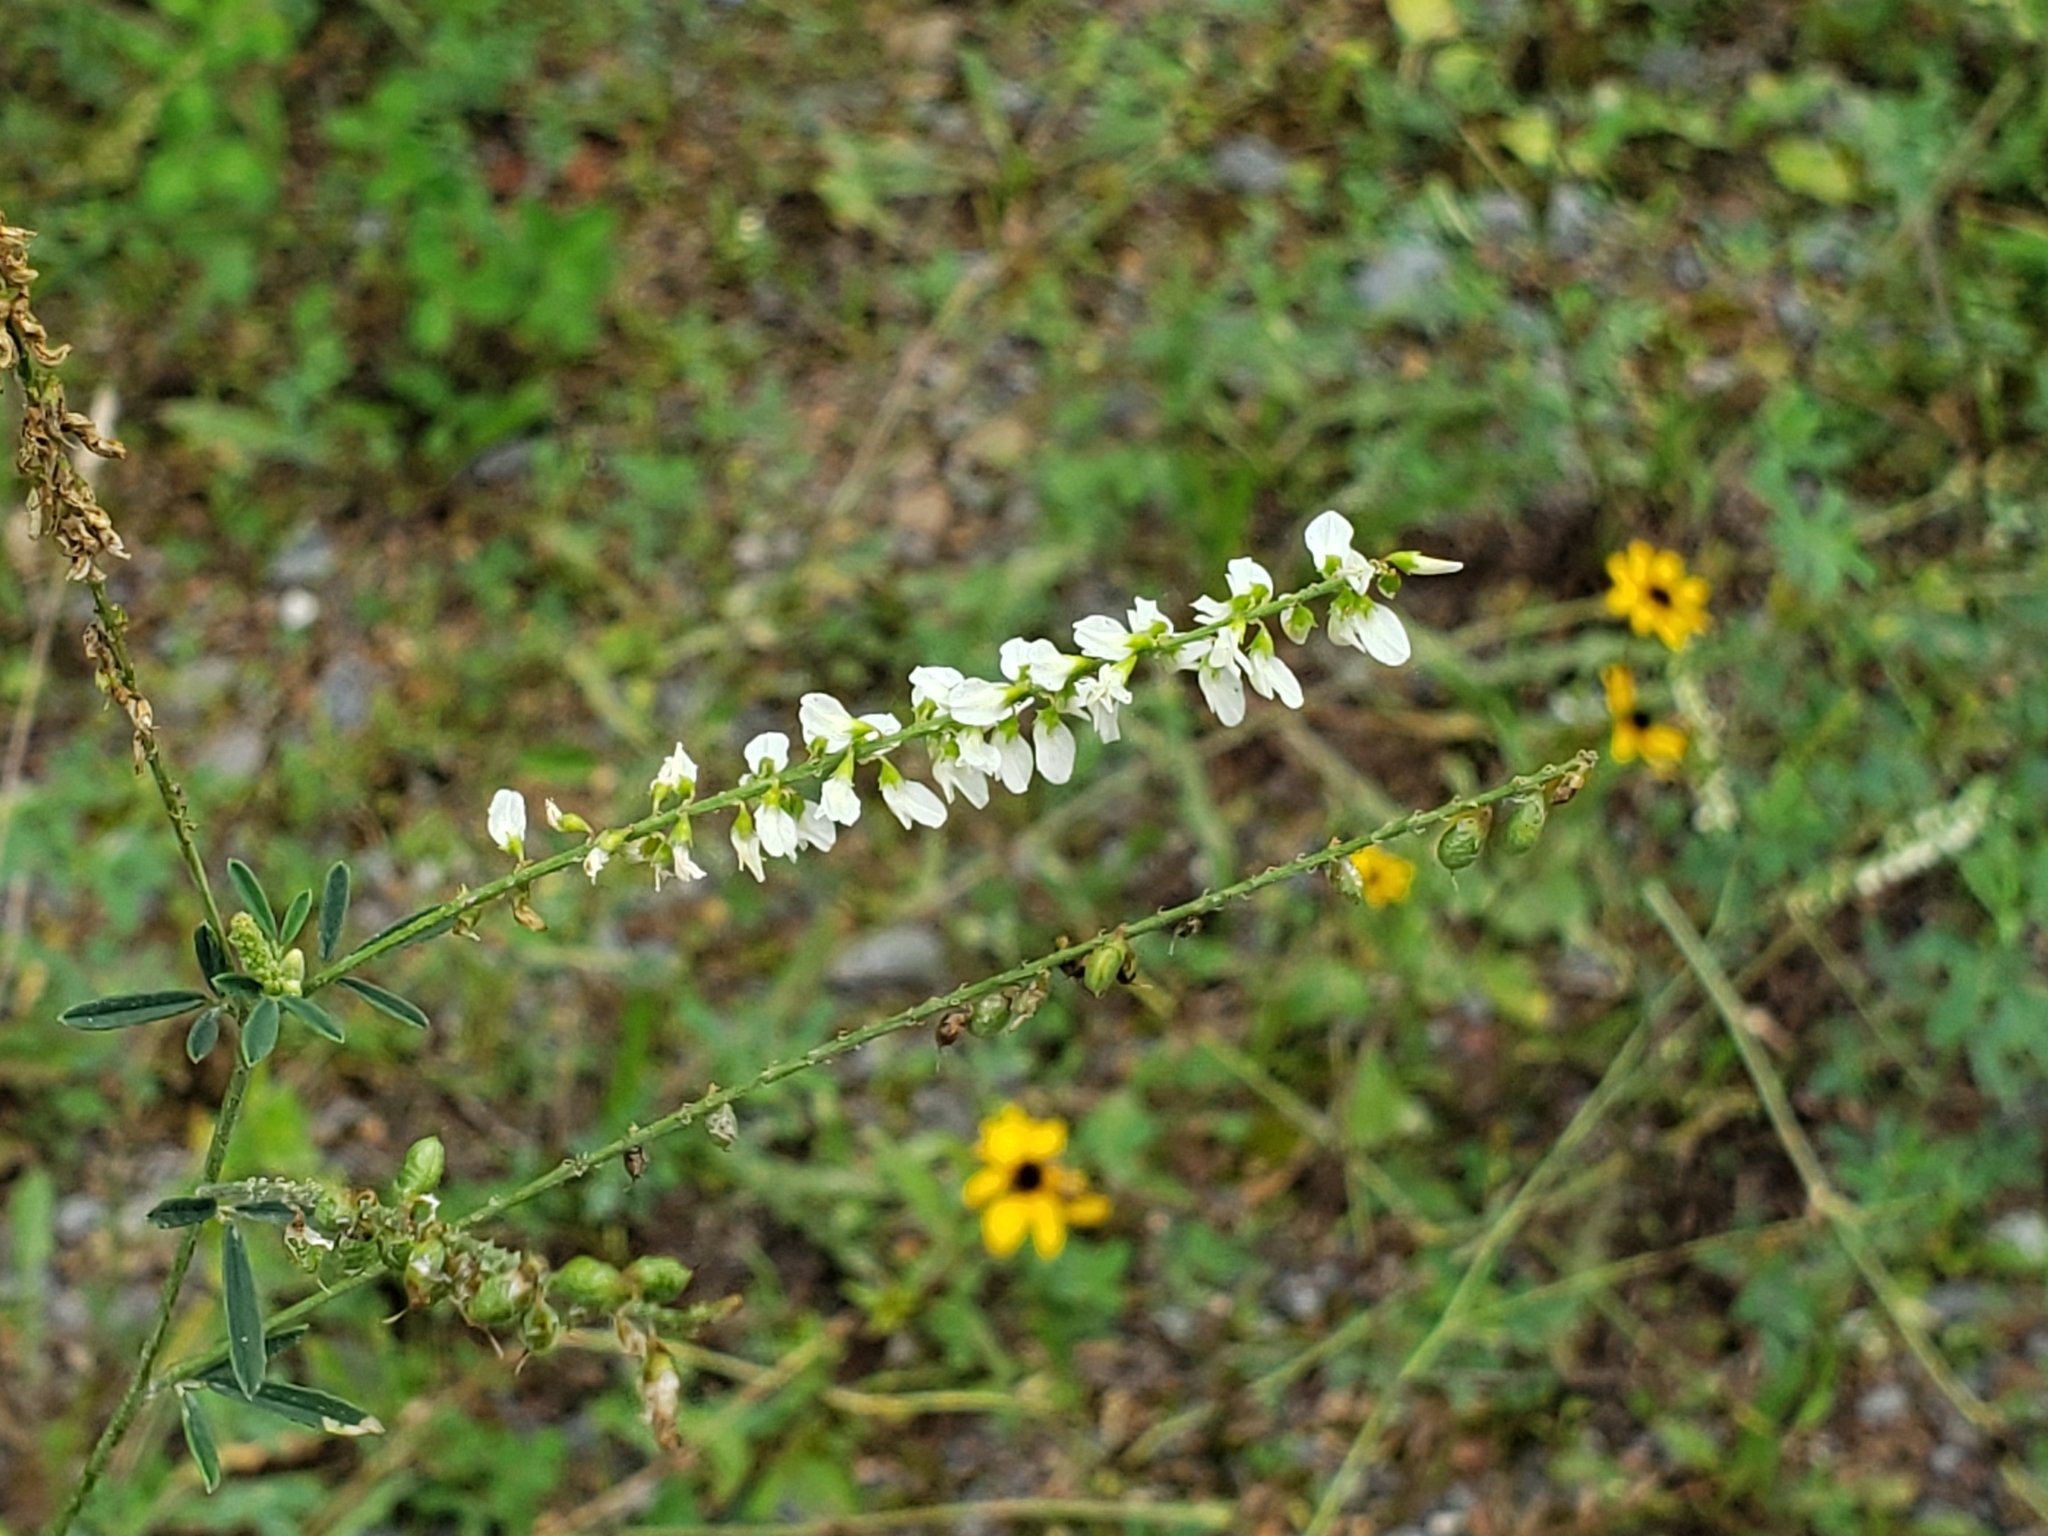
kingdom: Plantae
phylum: Tracheophyta
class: Magnoliopsida
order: Fabales
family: Fabaceae
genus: Melilotus
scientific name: Melilotus albus
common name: White melilot
